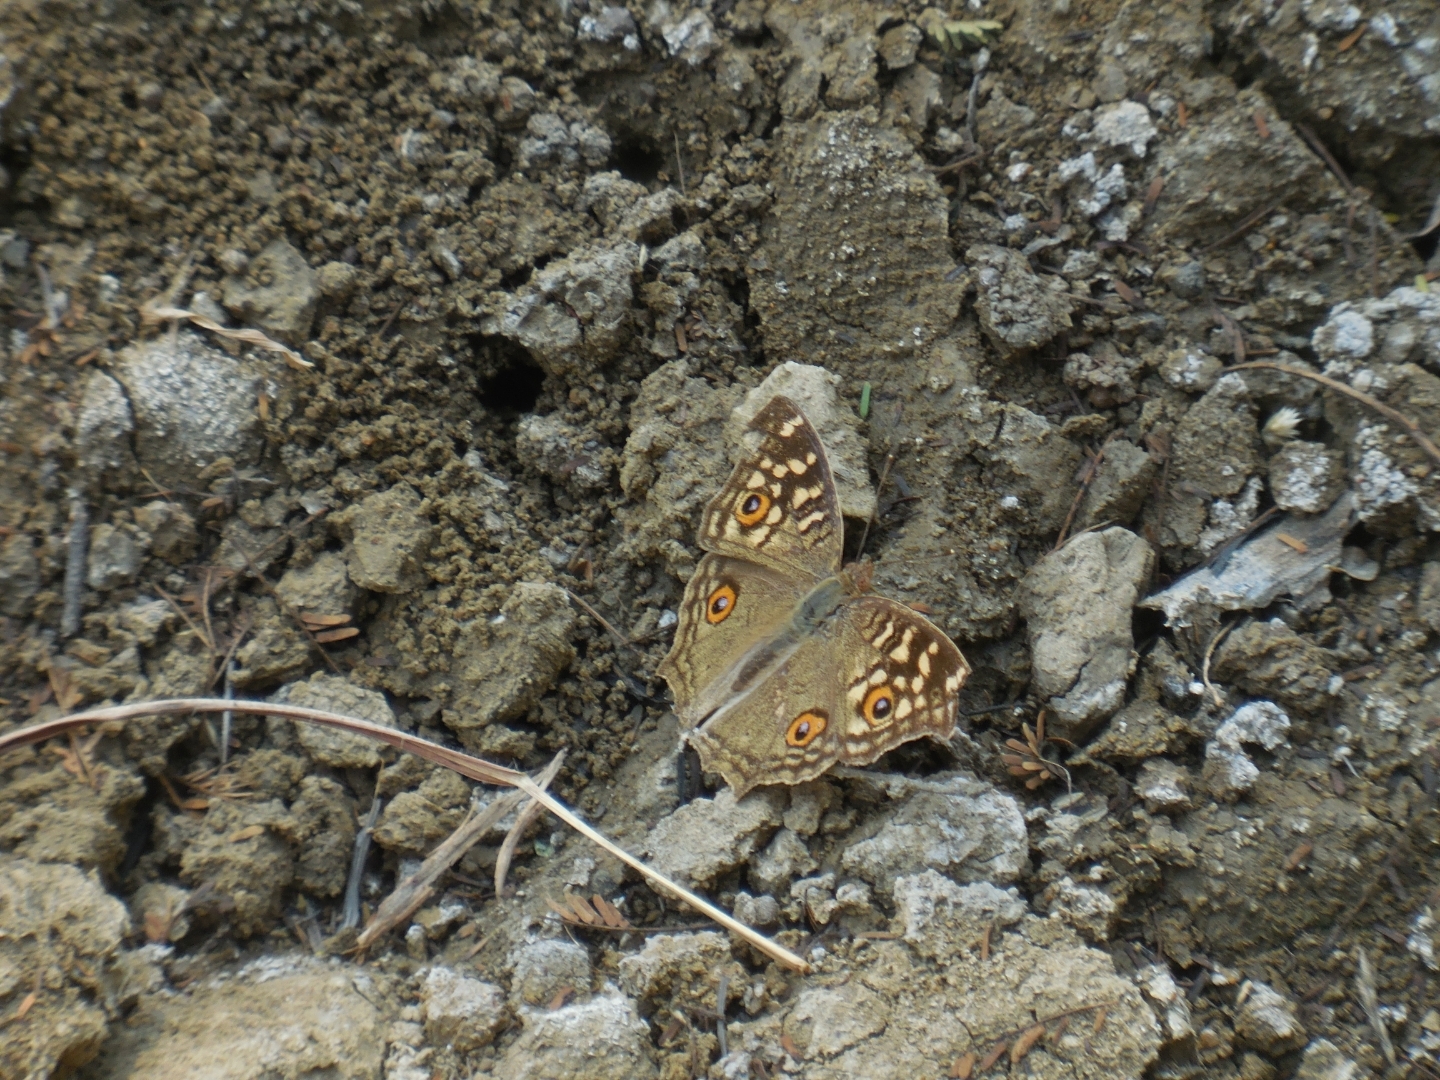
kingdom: Animalia
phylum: Arthropoda
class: Insecta
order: Lepidoptera
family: Nymphalidae
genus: Junonia
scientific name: Junonia lemonias
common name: Lemon pansy
